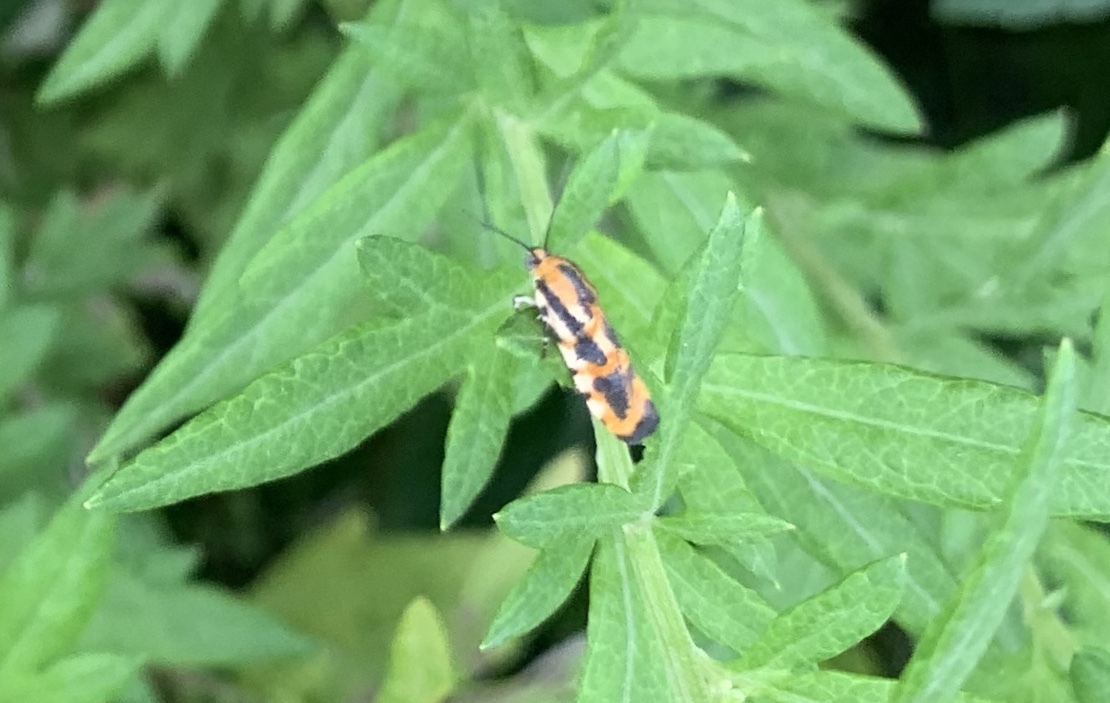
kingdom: Animalia
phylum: Arthropoda
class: Insecta
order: Lepidoptera
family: Noctuidae
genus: Acontia
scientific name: Acontia leo
